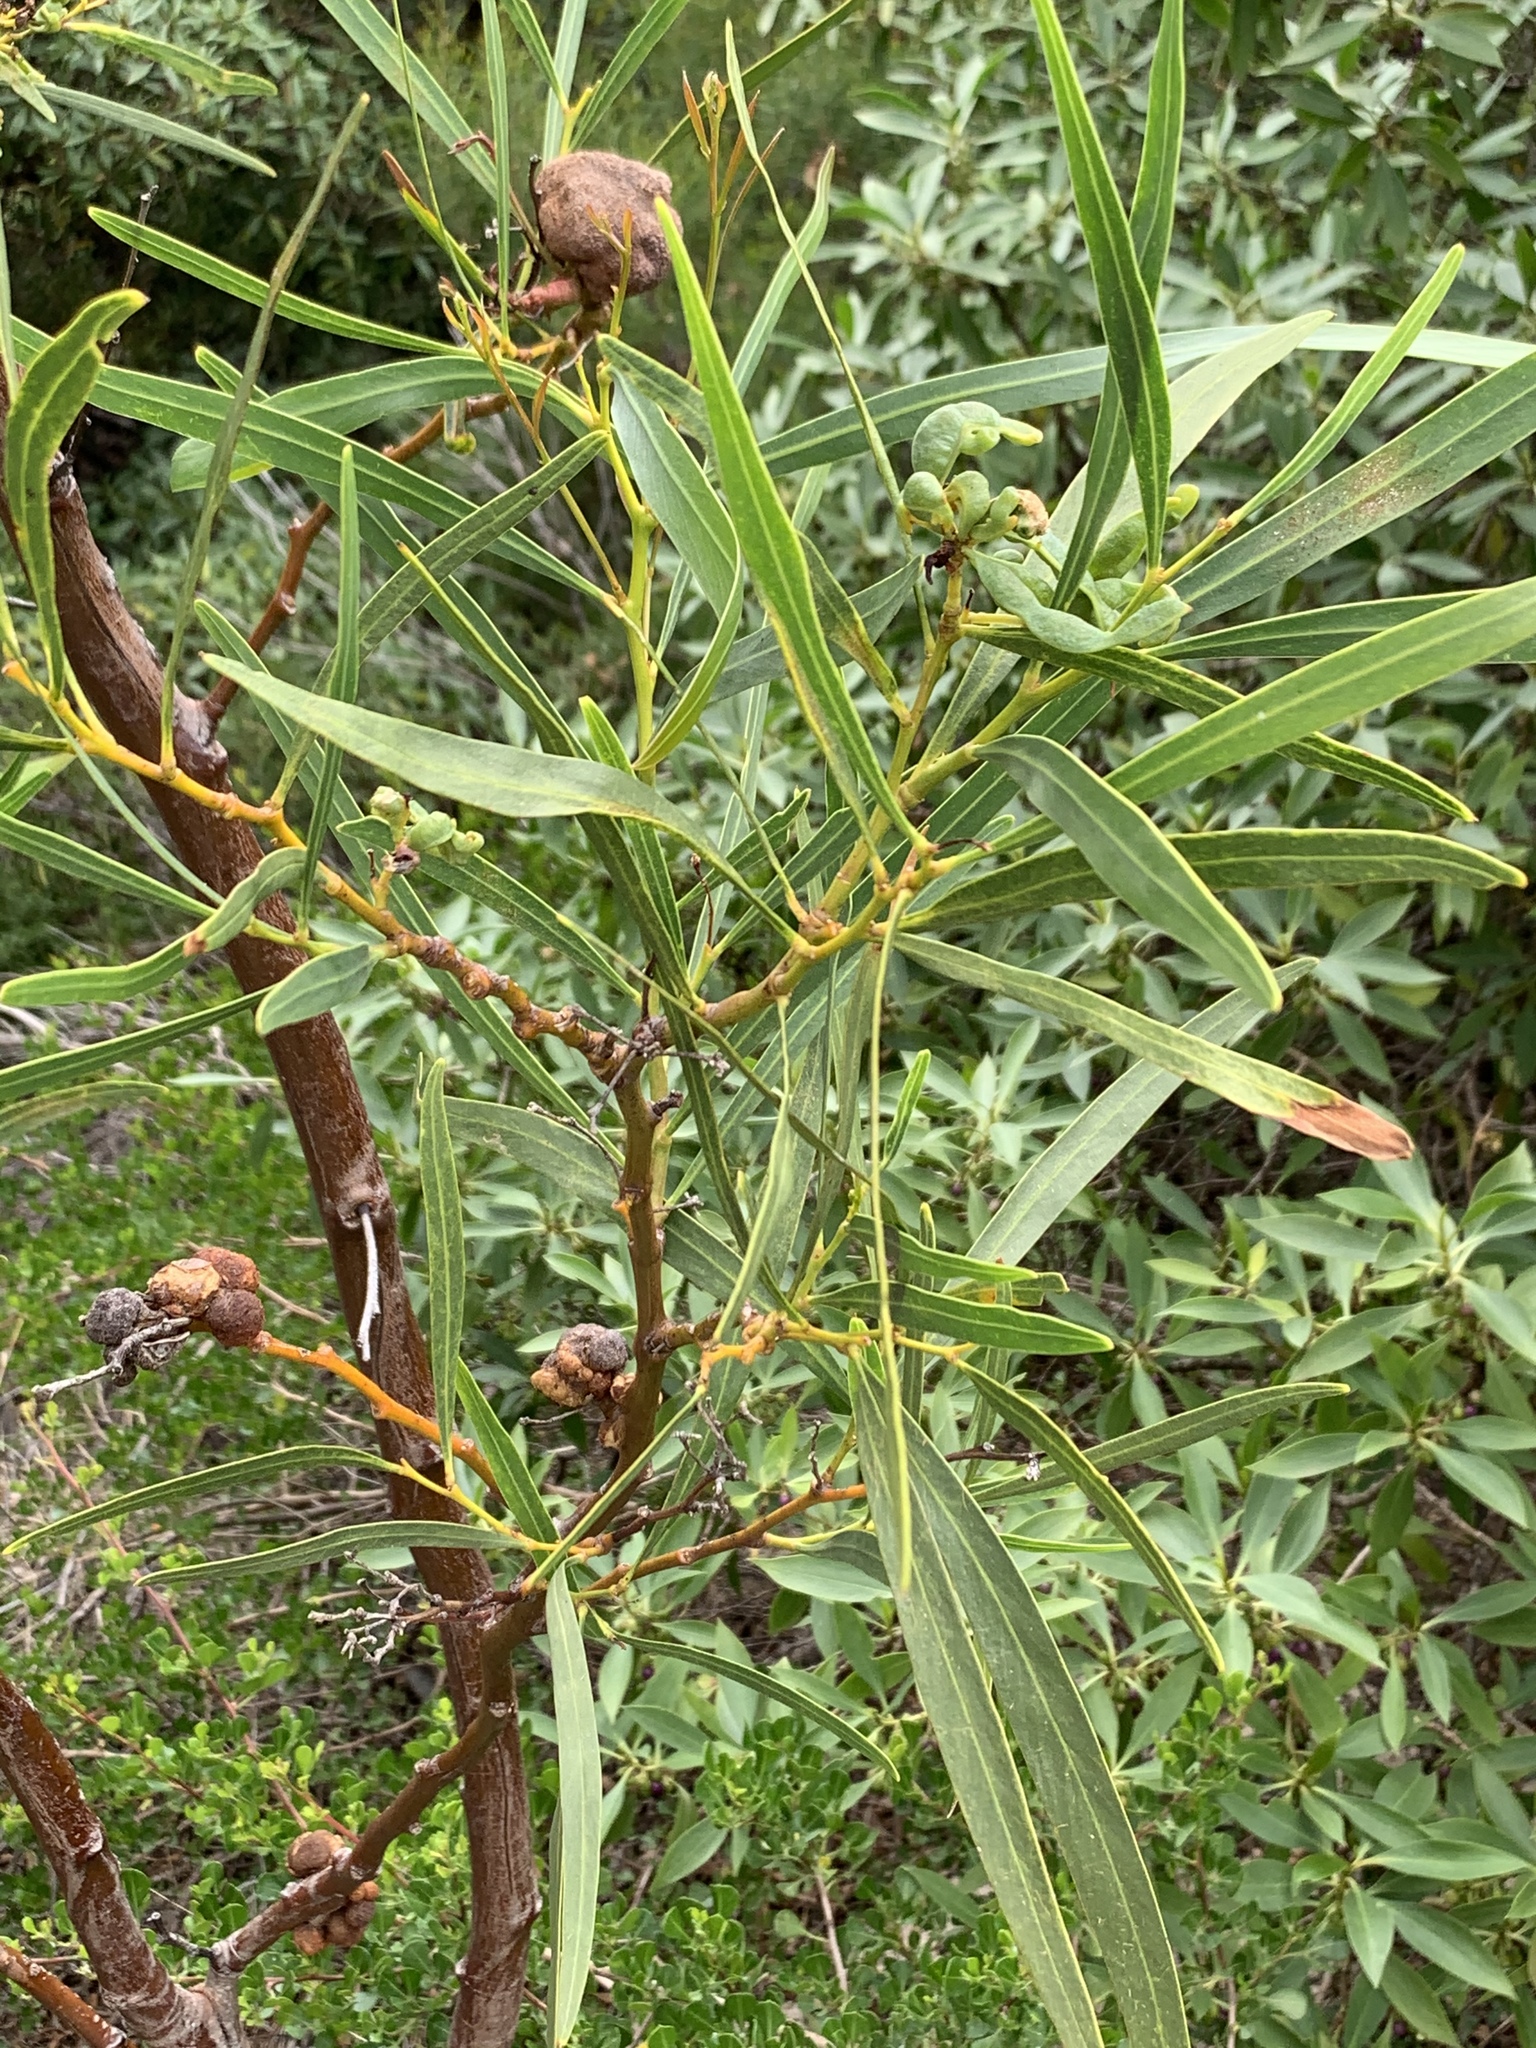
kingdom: Plantae
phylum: Tracheophyta
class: Magnoliopsida
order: Fabales
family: Fabaceae
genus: Acacia
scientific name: Acacia saligna
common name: Orange wattle
